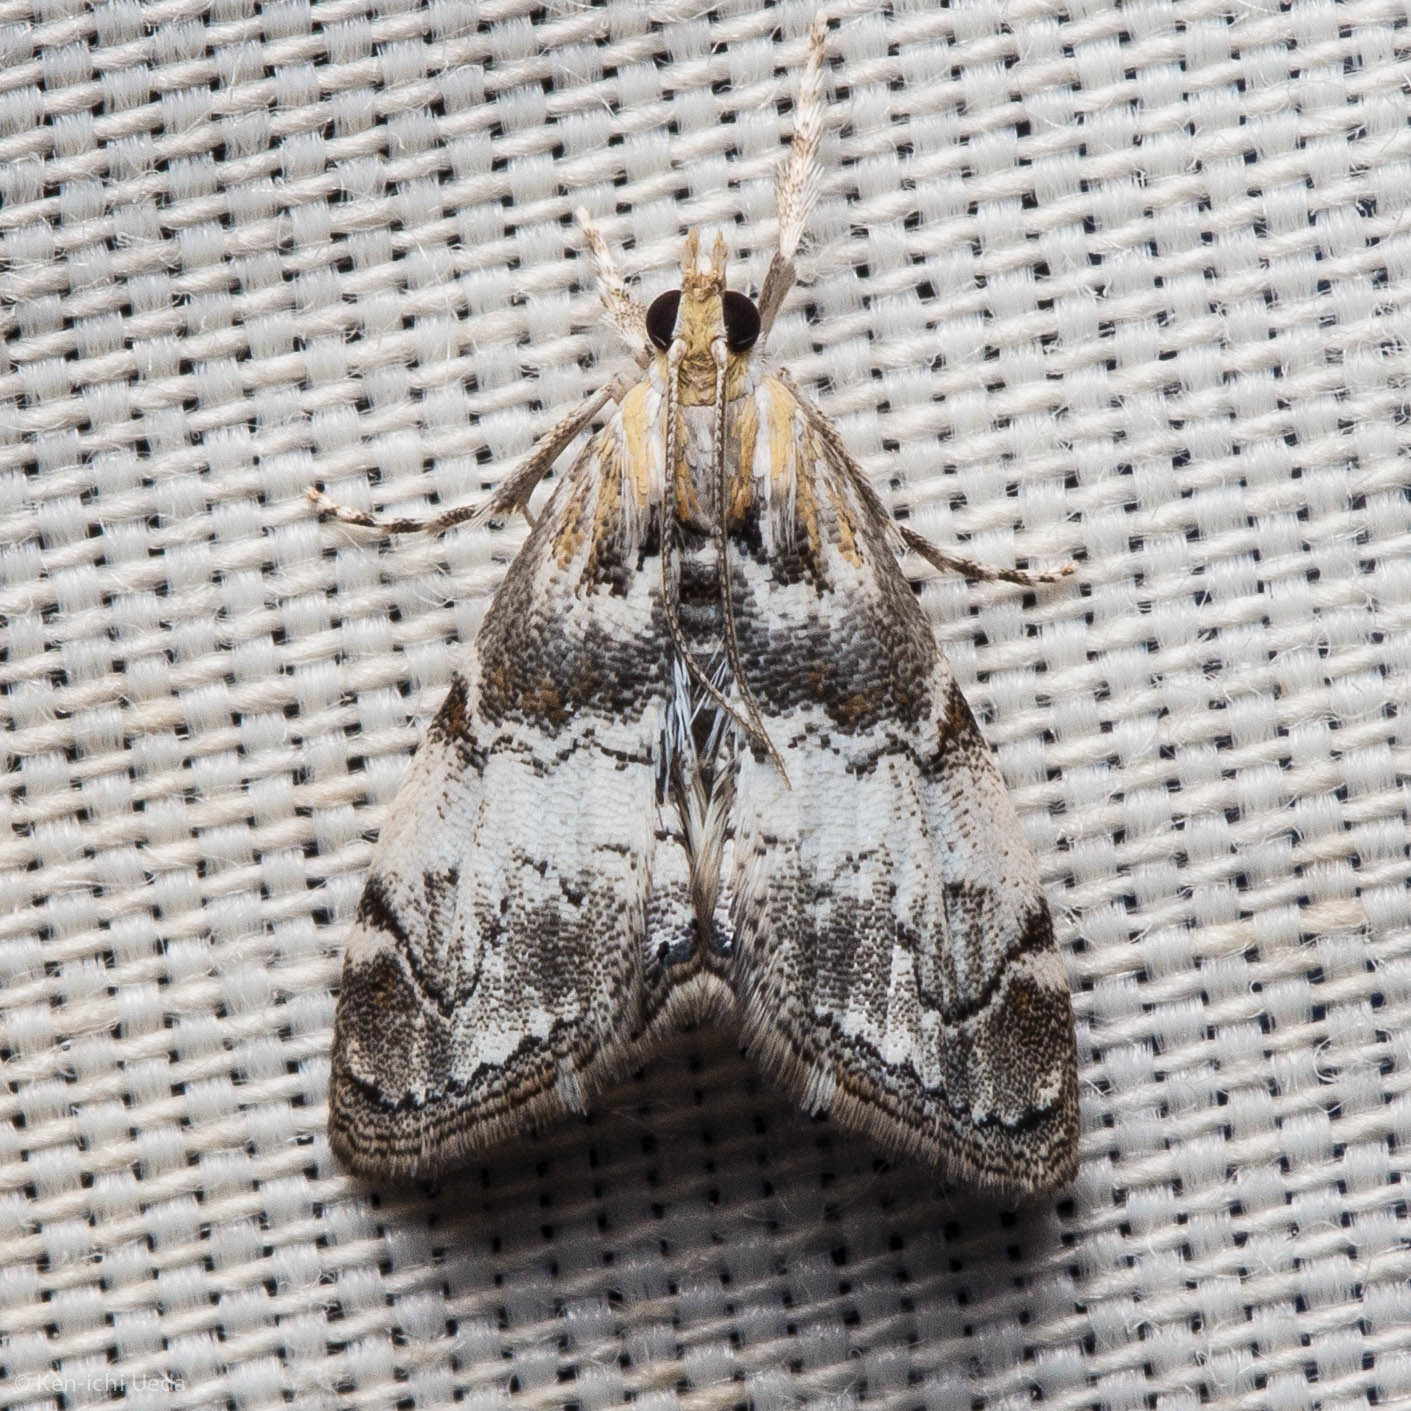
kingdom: Animalia
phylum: Arthropoda
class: Insecta
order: Lepidoptera
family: Crambidae
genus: Dicymolomia
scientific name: Dicymolomia micropunctalis
